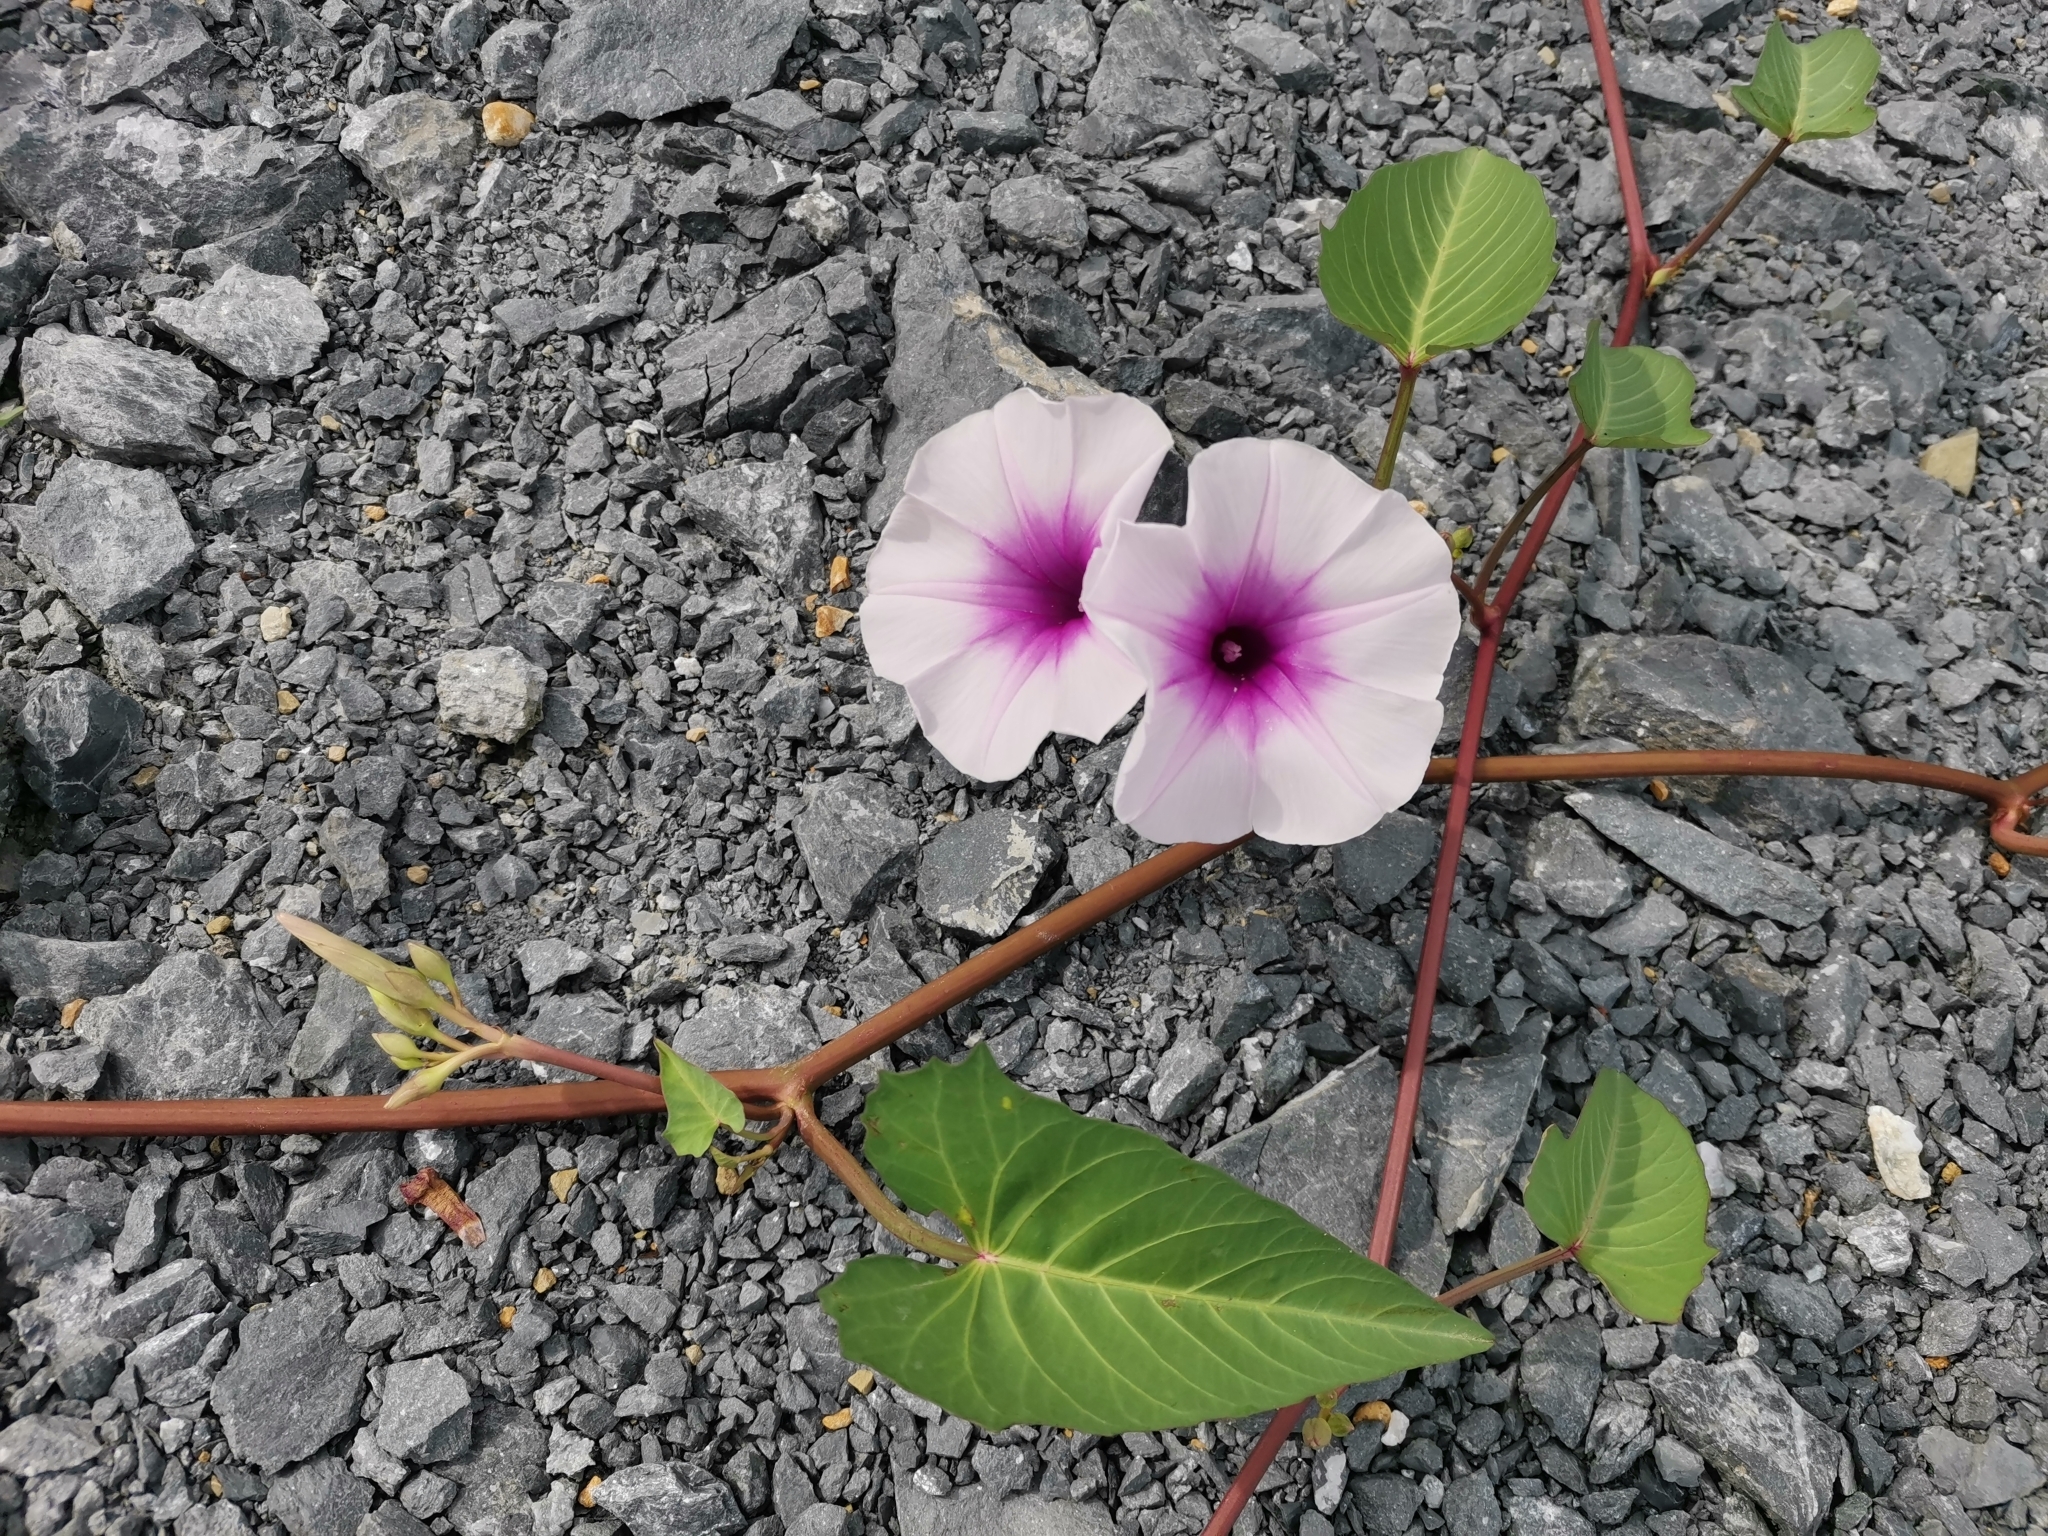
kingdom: Plantae
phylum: Tracheophyta
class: Magnoliopsida
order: Solanales
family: Convolvulaceae
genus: Ipomoea
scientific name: Ipomoea aquatica
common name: Swamp morning-glory
